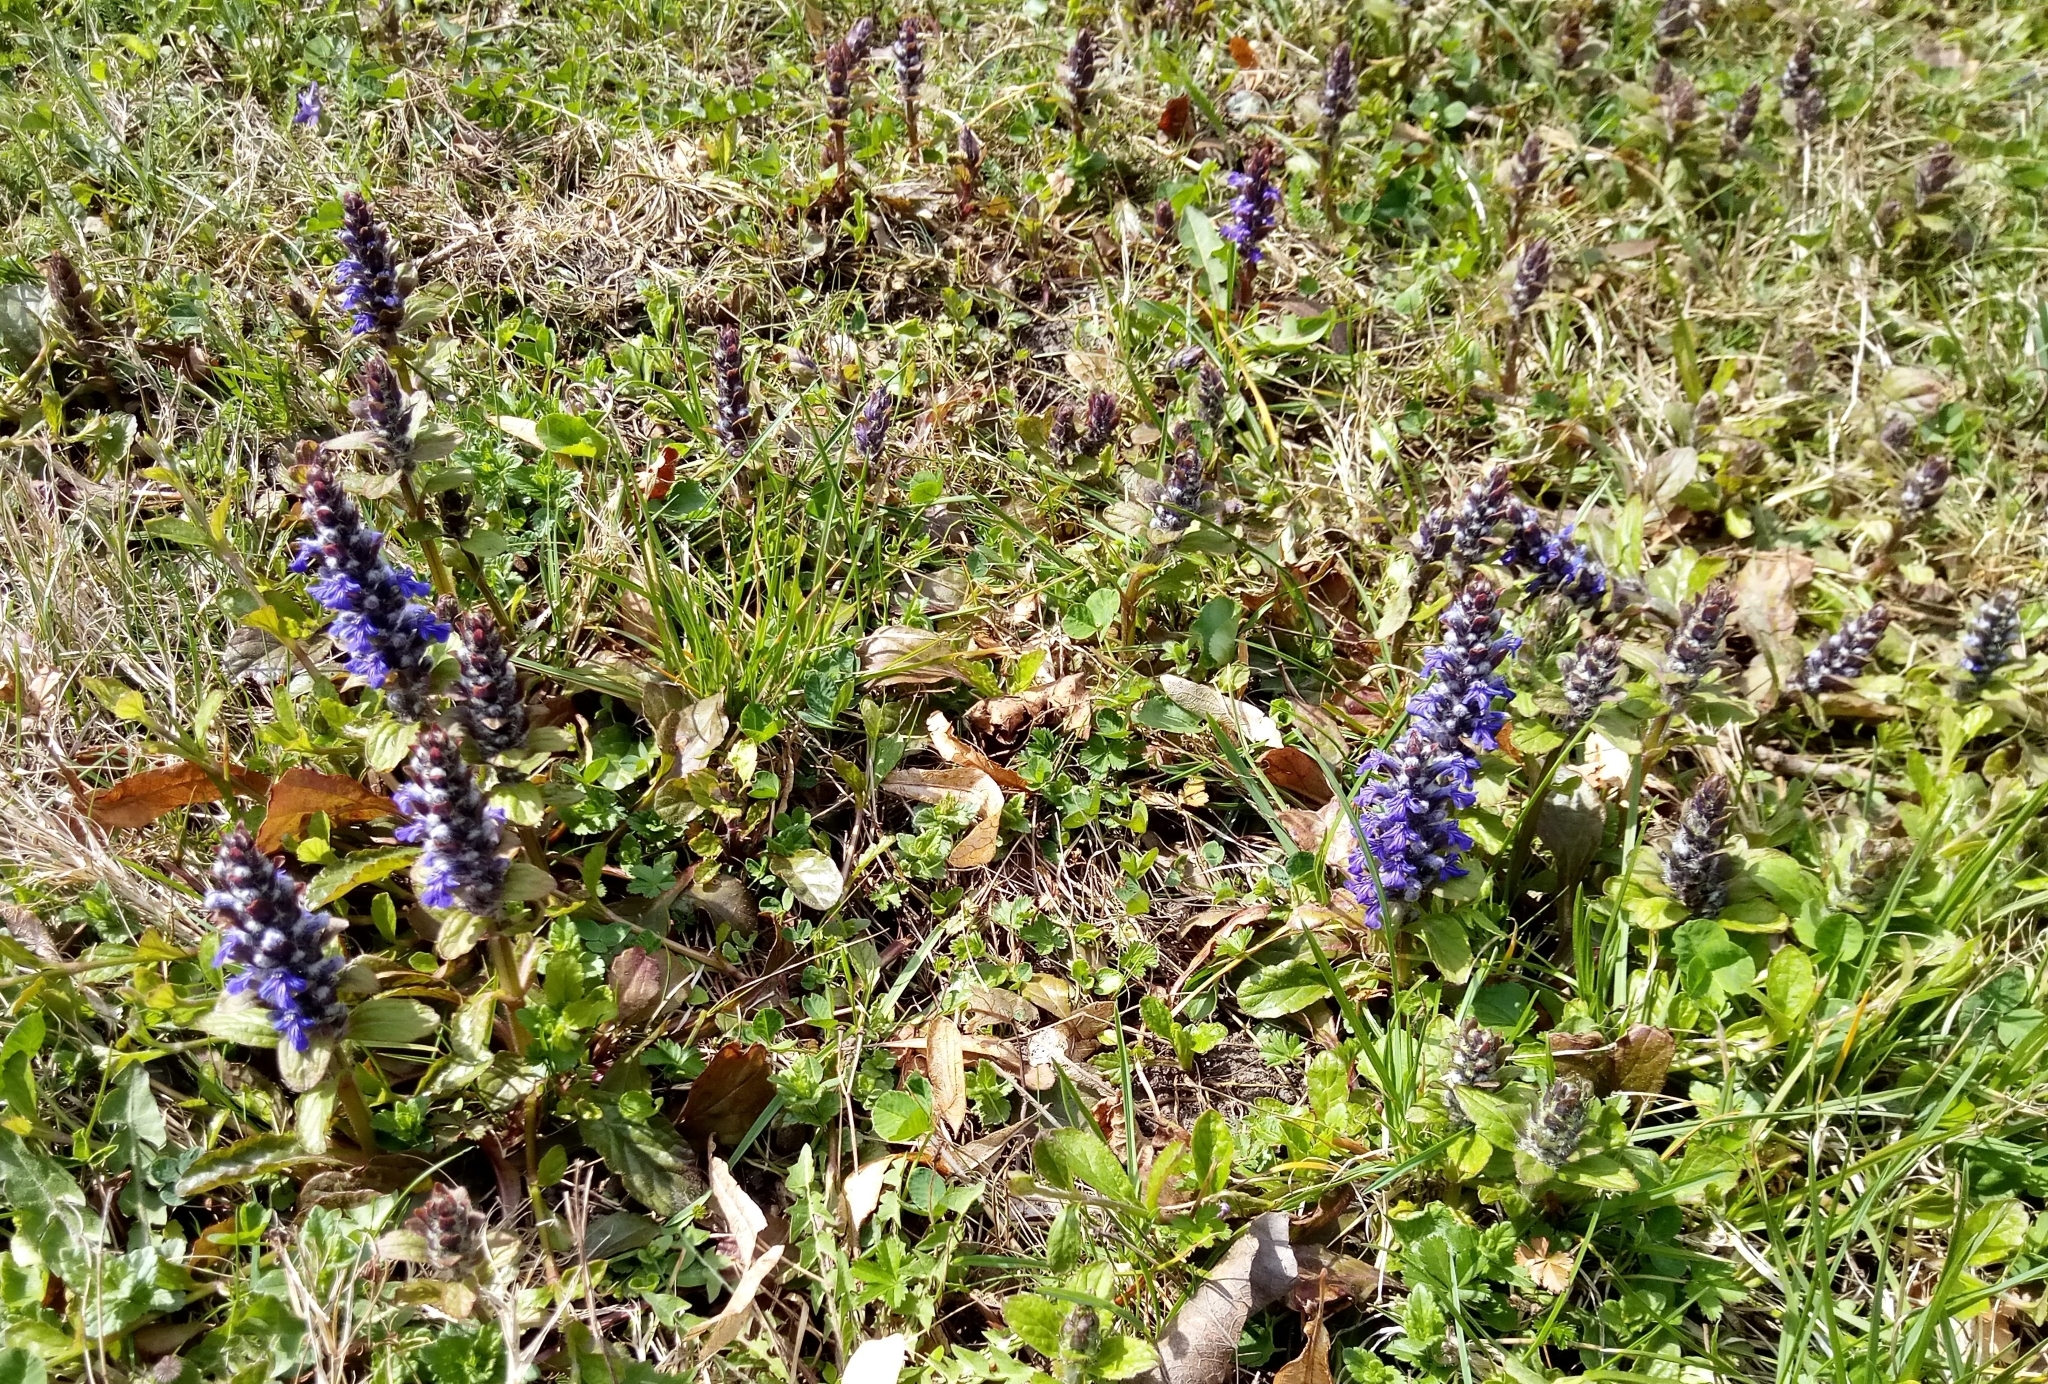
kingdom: Plantae
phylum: Tracheophyta
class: Magnoliopsida
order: Lamiales
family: Lamiaceae
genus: Ajuga
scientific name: Ajuga reptans
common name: Bugle
